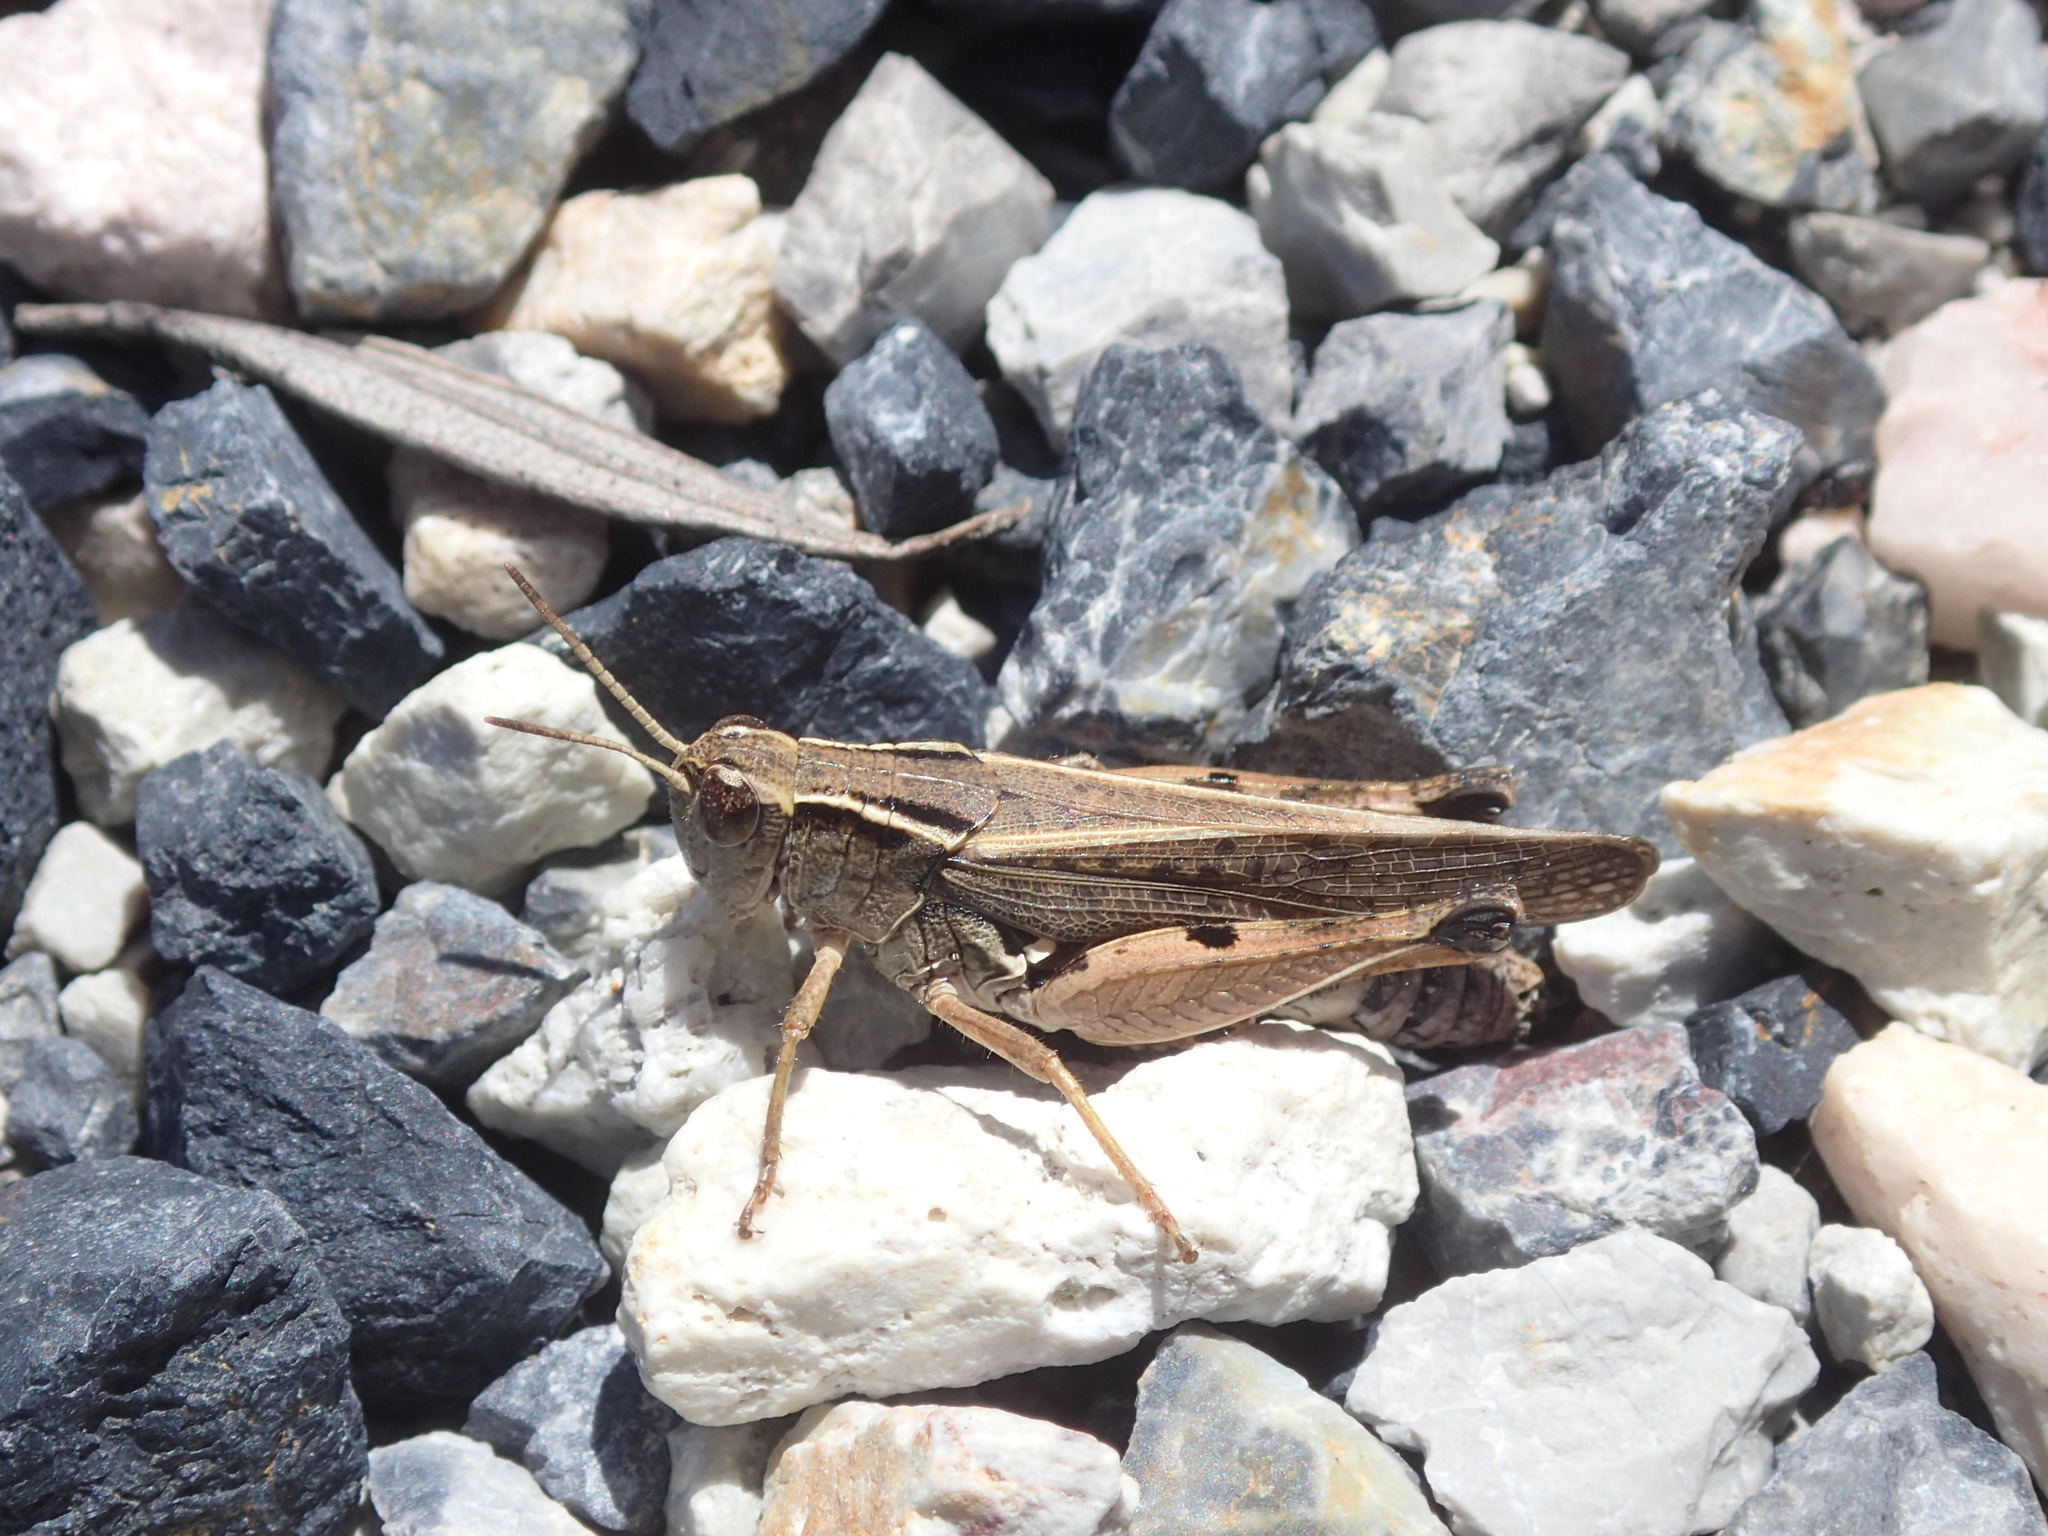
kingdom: Animalia
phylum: Arthropoda
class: Insecta
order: Orthoptera
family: Acrididae
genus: Phaulacridium
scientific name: Phaulacridium vittatum
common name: Wingless grasshopper
